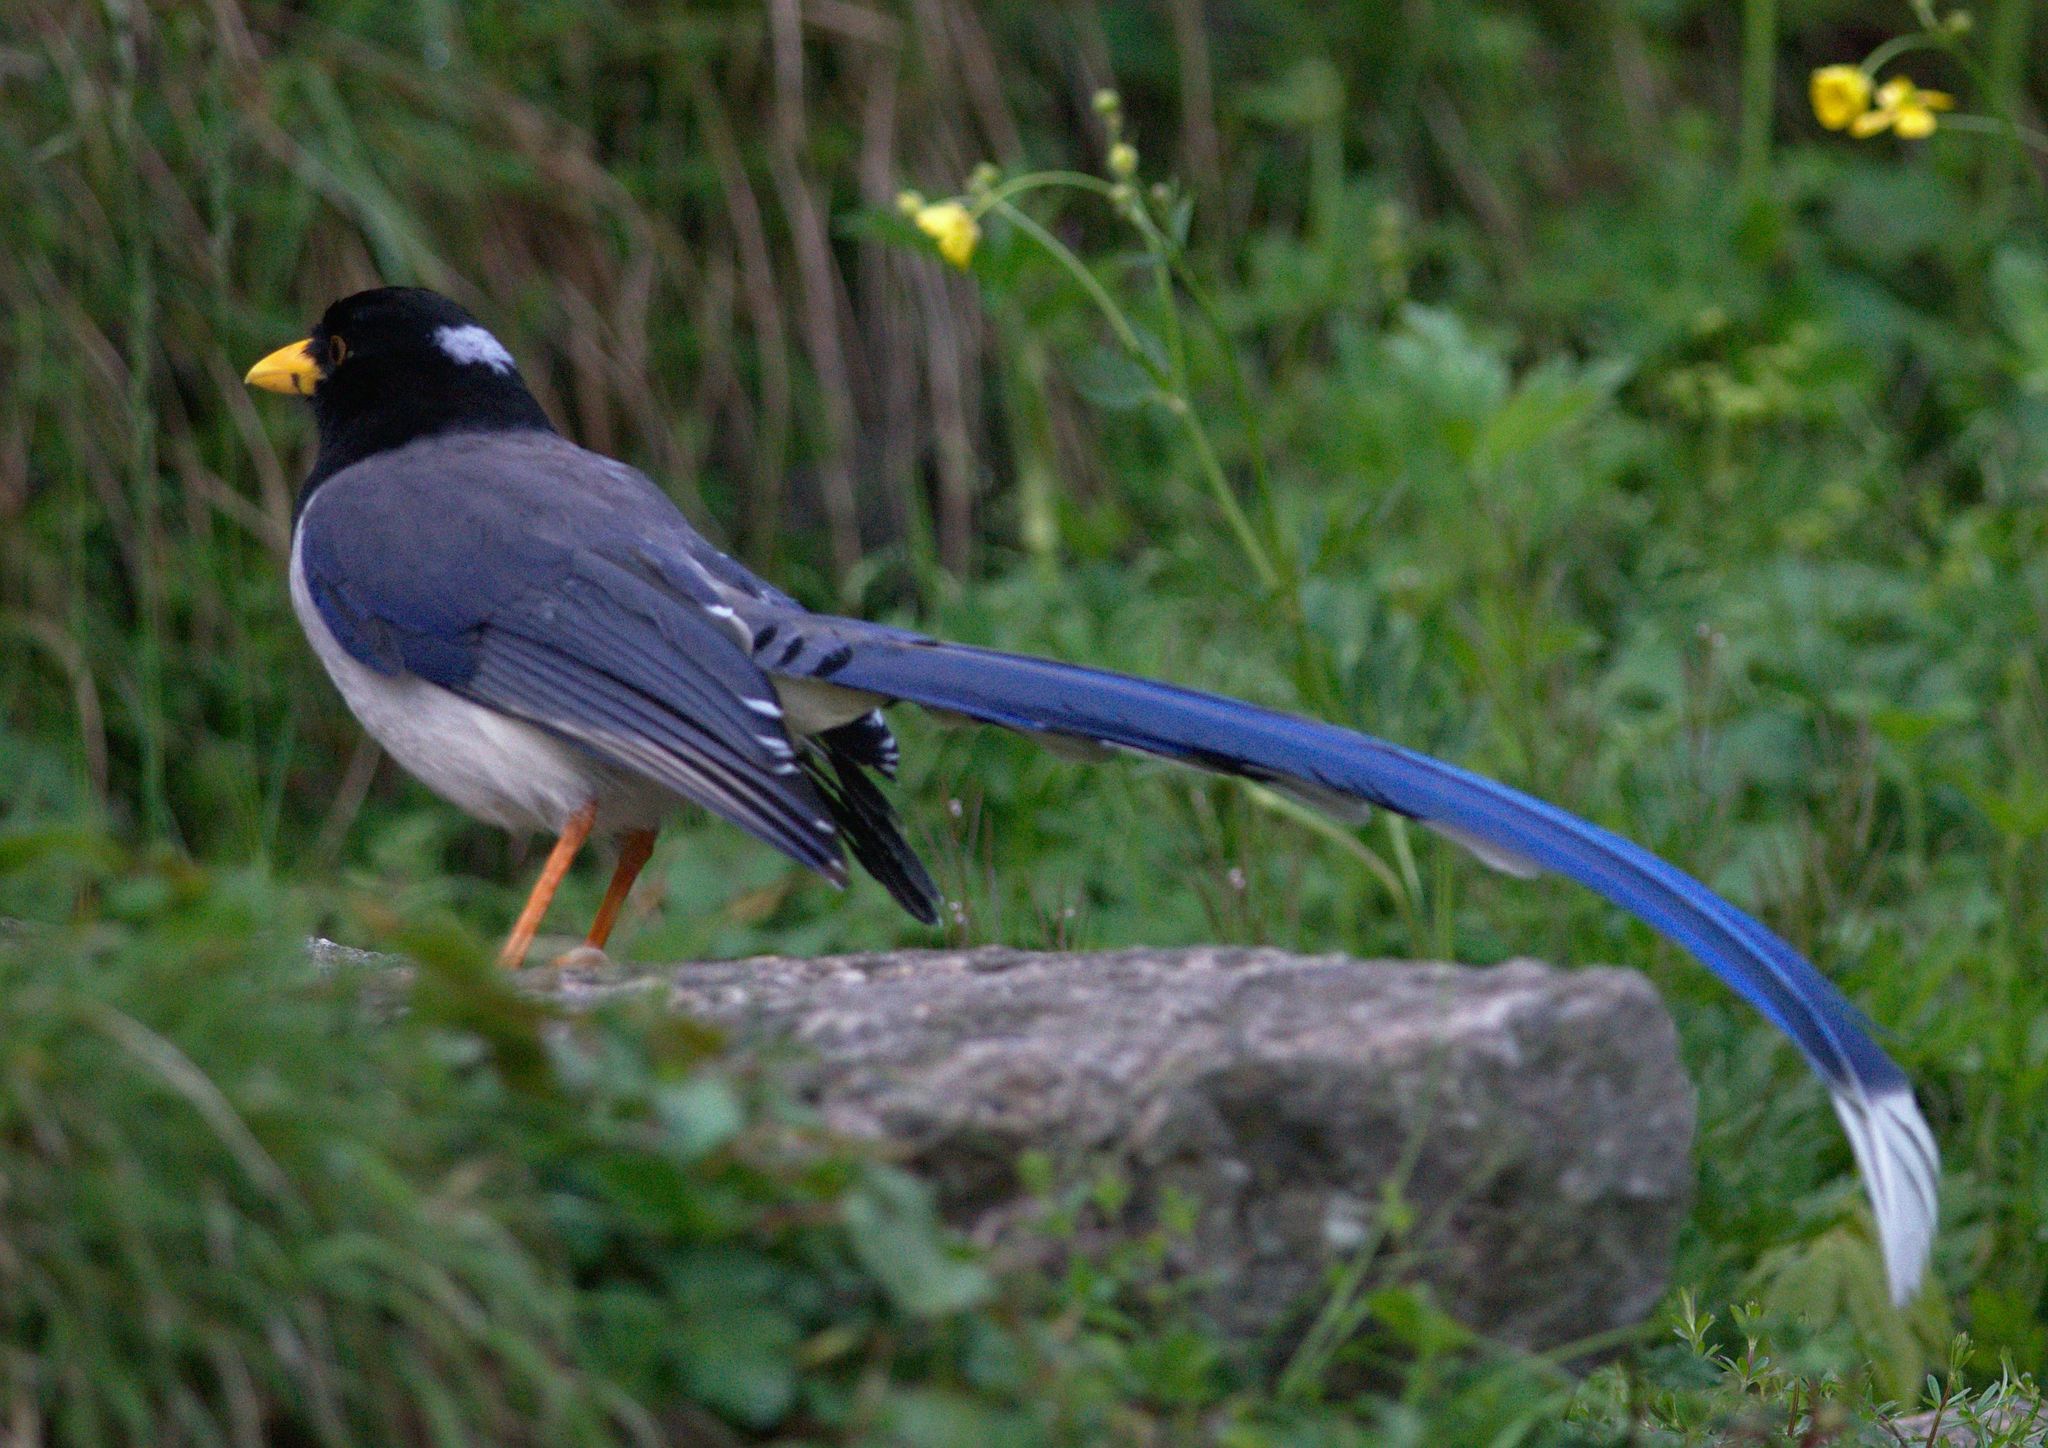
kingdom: Animalia
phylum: Chordata
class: Aves
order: Passeriformes
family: Corvidae
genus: Urocissa
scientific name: Urocissa flavirostris
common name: Yellow-billed blue magpie
